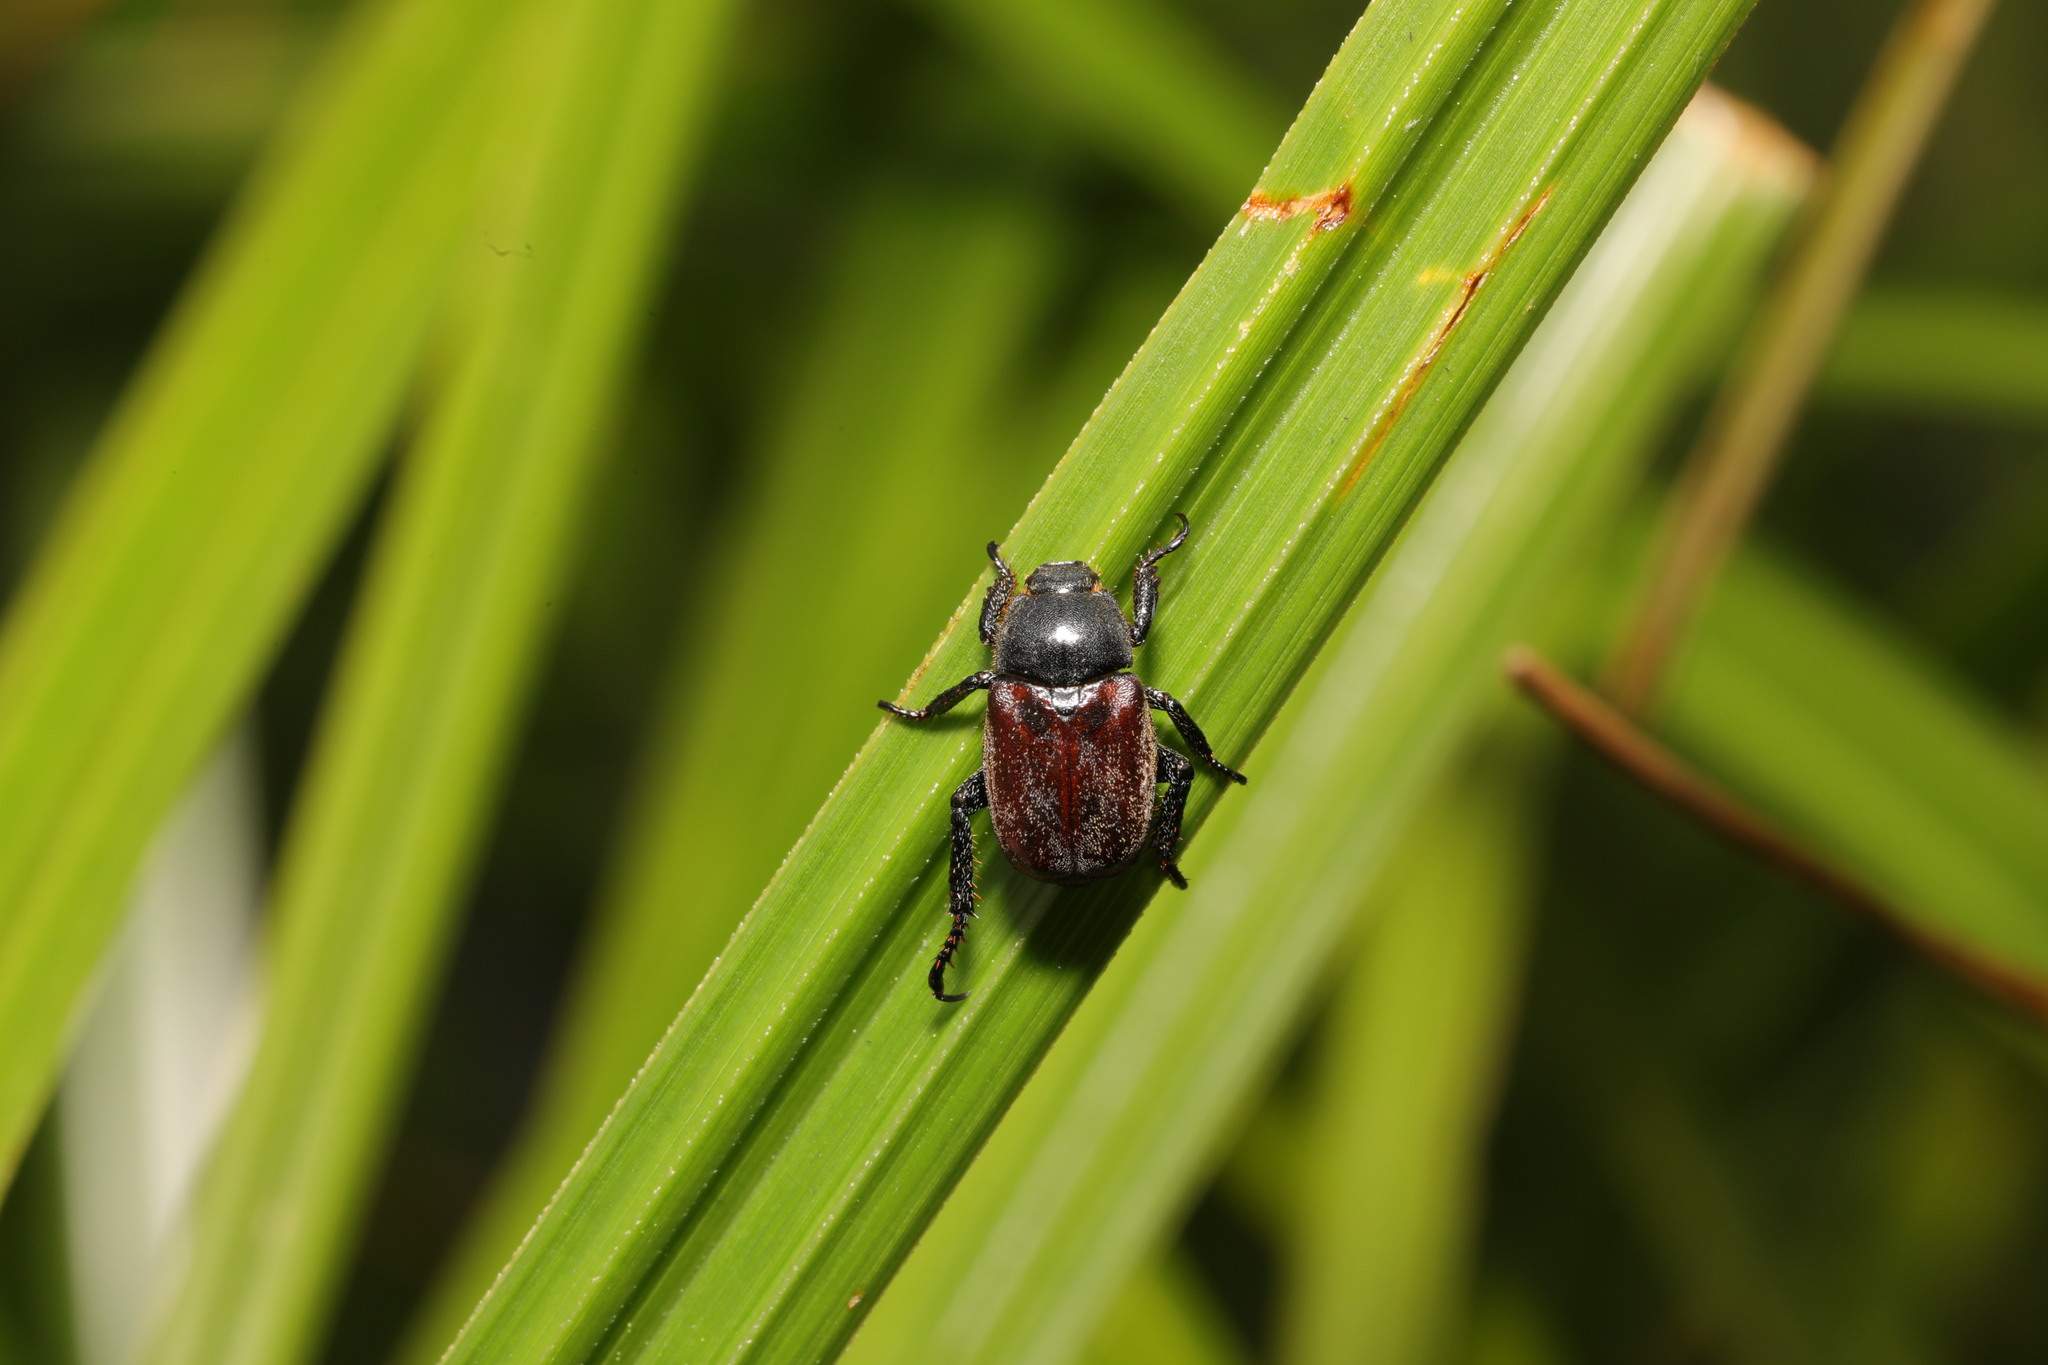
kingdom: Animalia
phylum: Arthropoda
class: Insecta
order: Coleoptera
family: Scarabaeidae
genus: Hoplia
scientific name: Hoplia philanthus
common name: Welsh chafer
